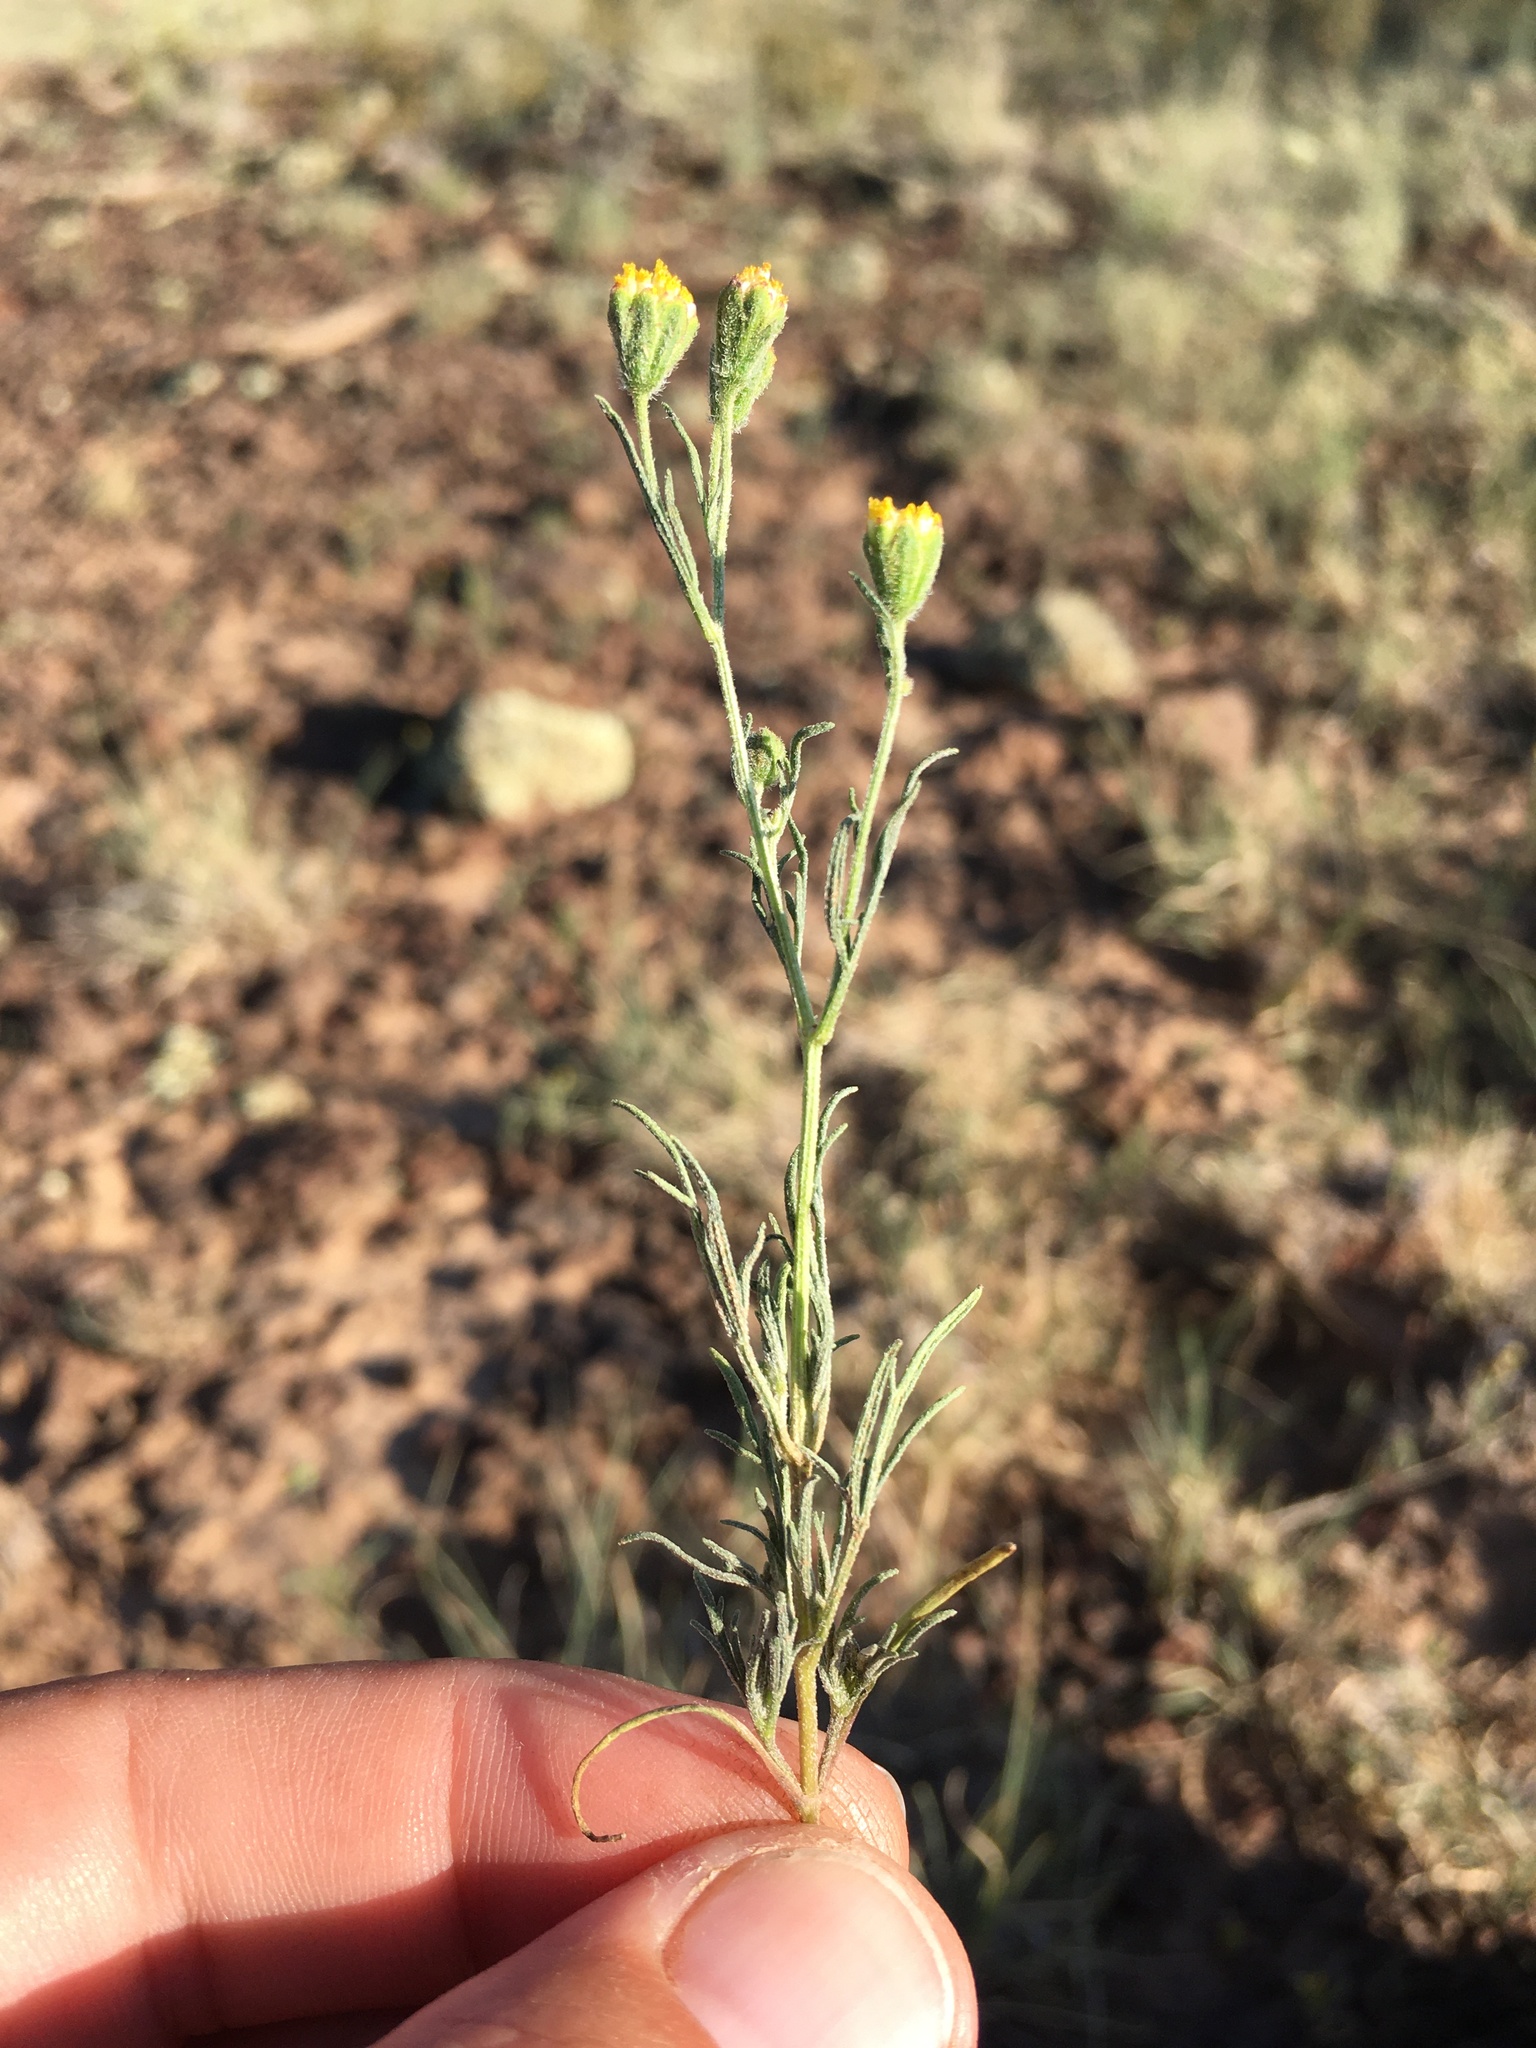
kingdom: Plantae
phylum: Tracheophyta
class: Magnoliopsida
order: Asterales
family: Asteraceae
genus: Picradeniopsis
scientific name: Picradeniopsis multiflora
